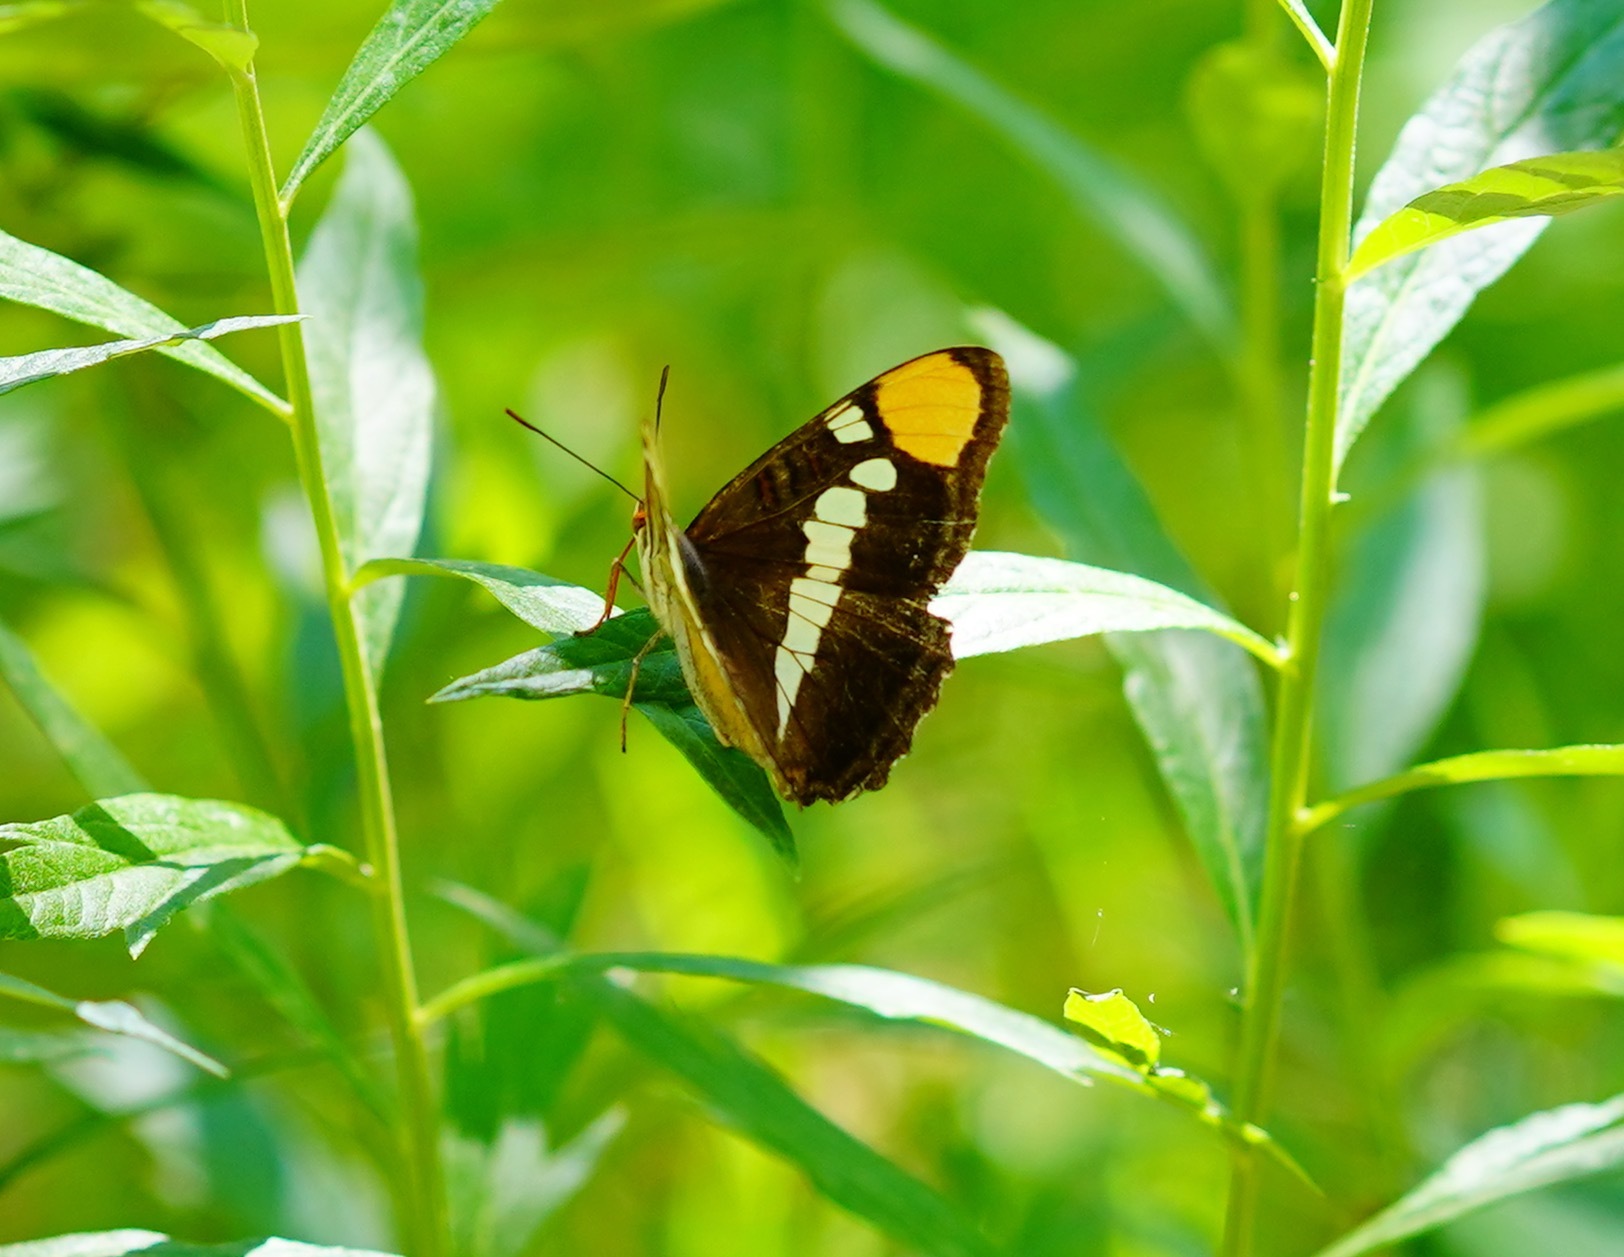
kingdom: Animalia
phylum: Arthropoda
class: Insecta
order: Lepidoptera
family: Nymphalidae
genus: Limenitis
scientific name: Limenitis bredowii
